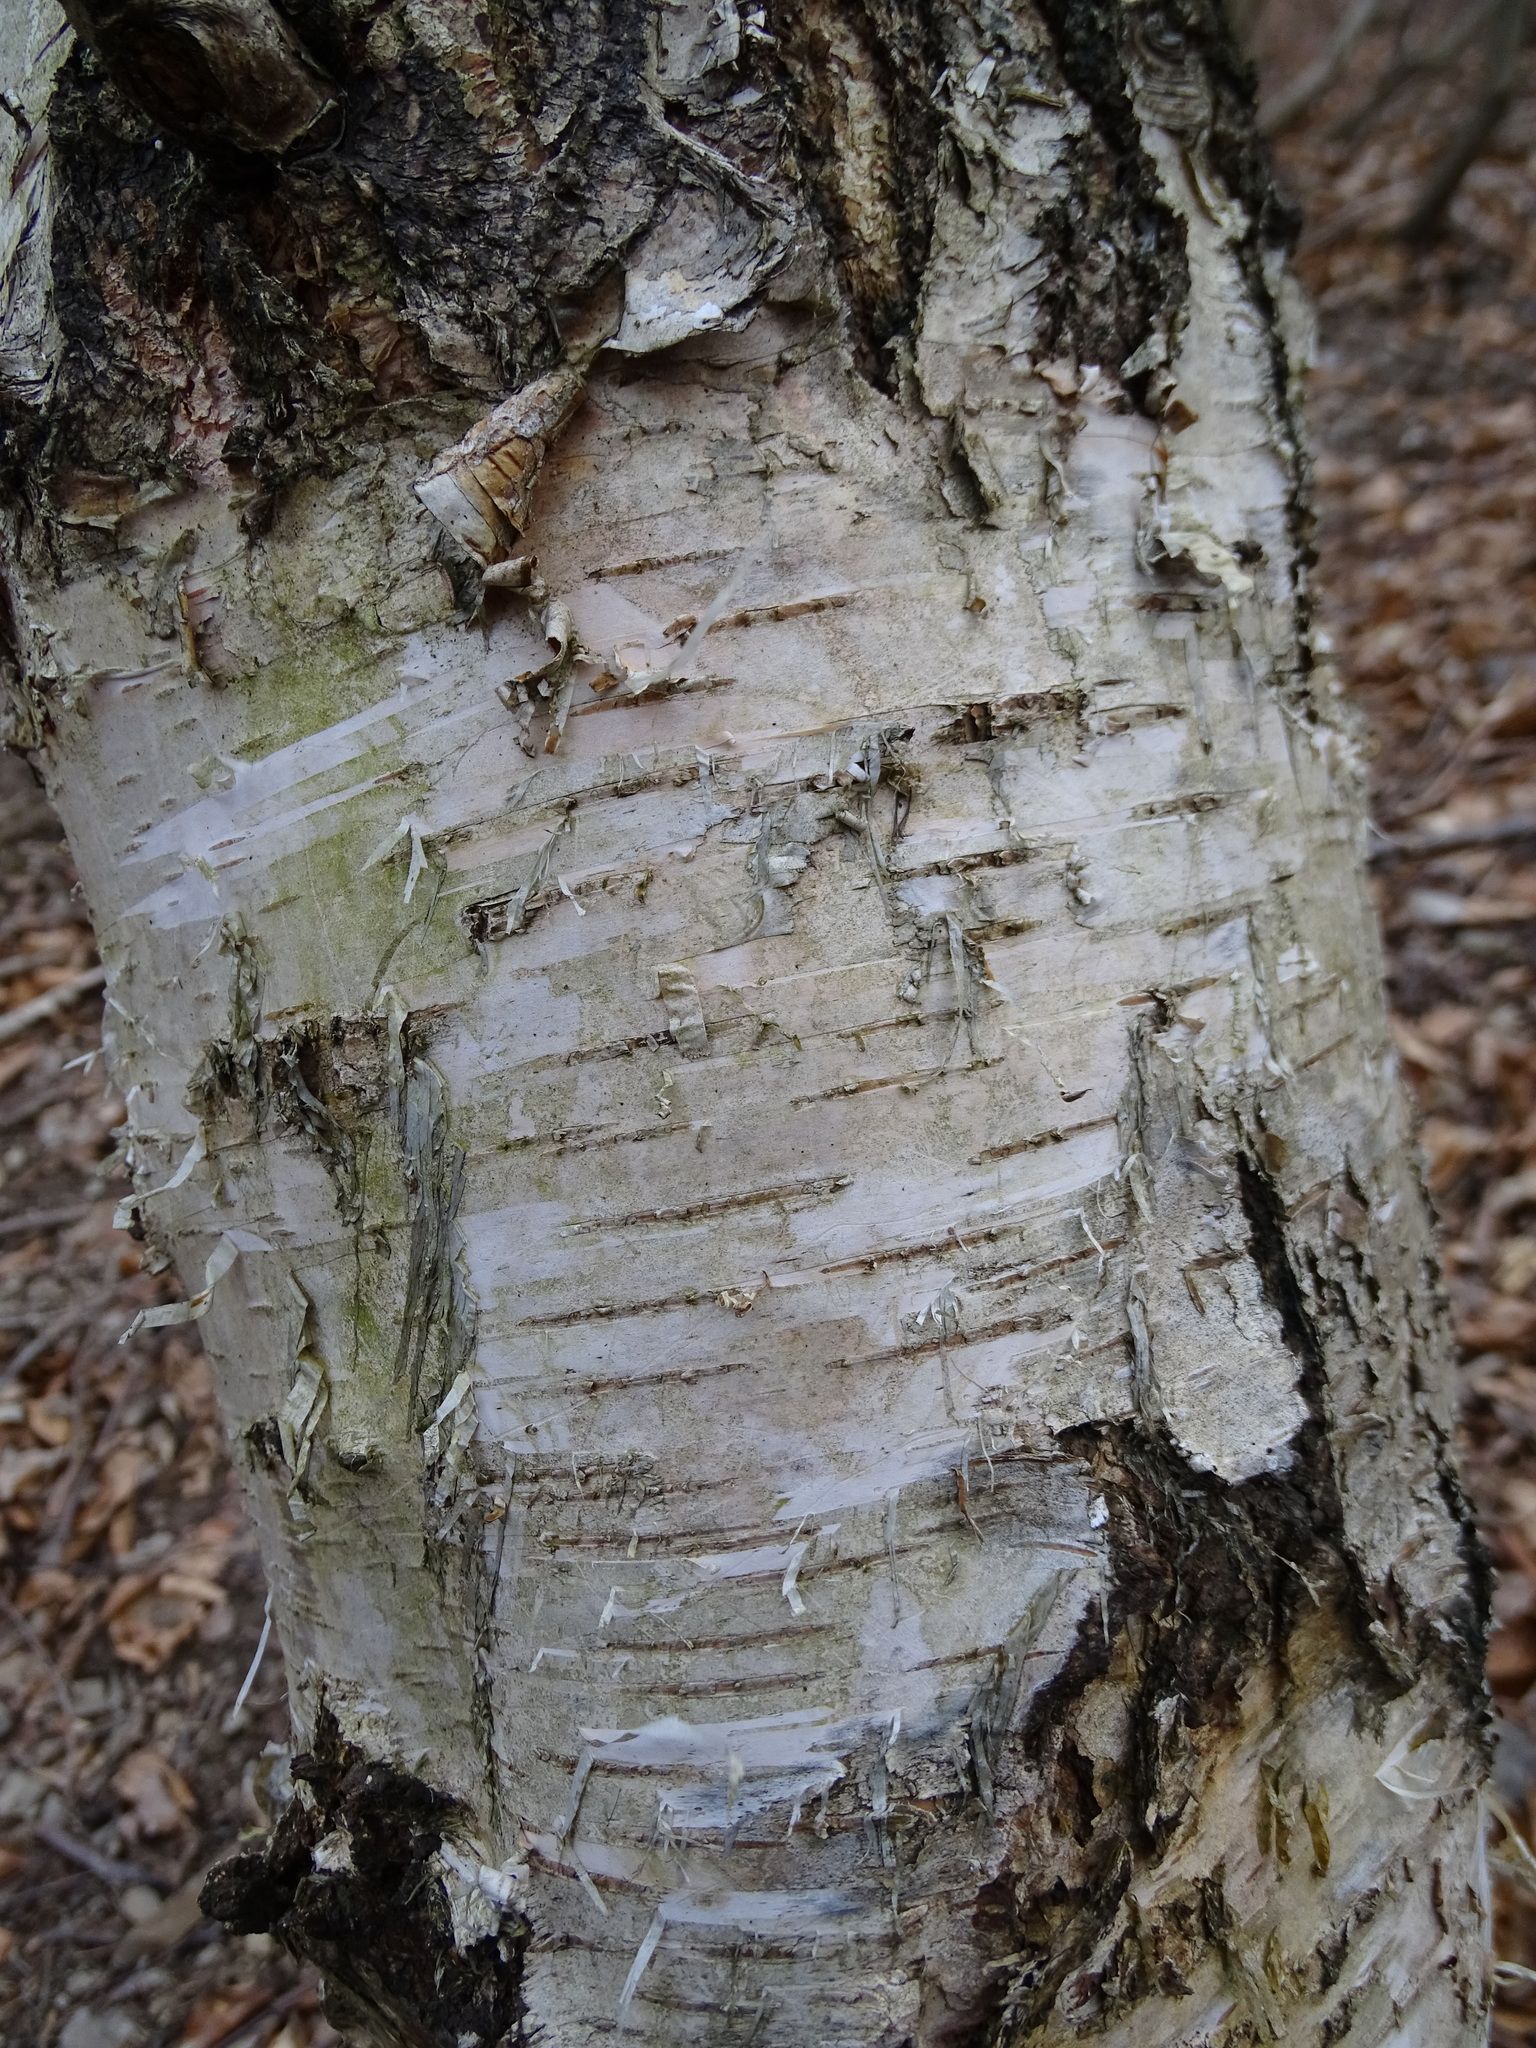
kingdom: Plantae
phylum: Tracheophyta
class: Magnoliopsida
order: Fagales
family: Betulaceae
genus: Betula
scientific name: Betula pendula
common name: Silver birch
